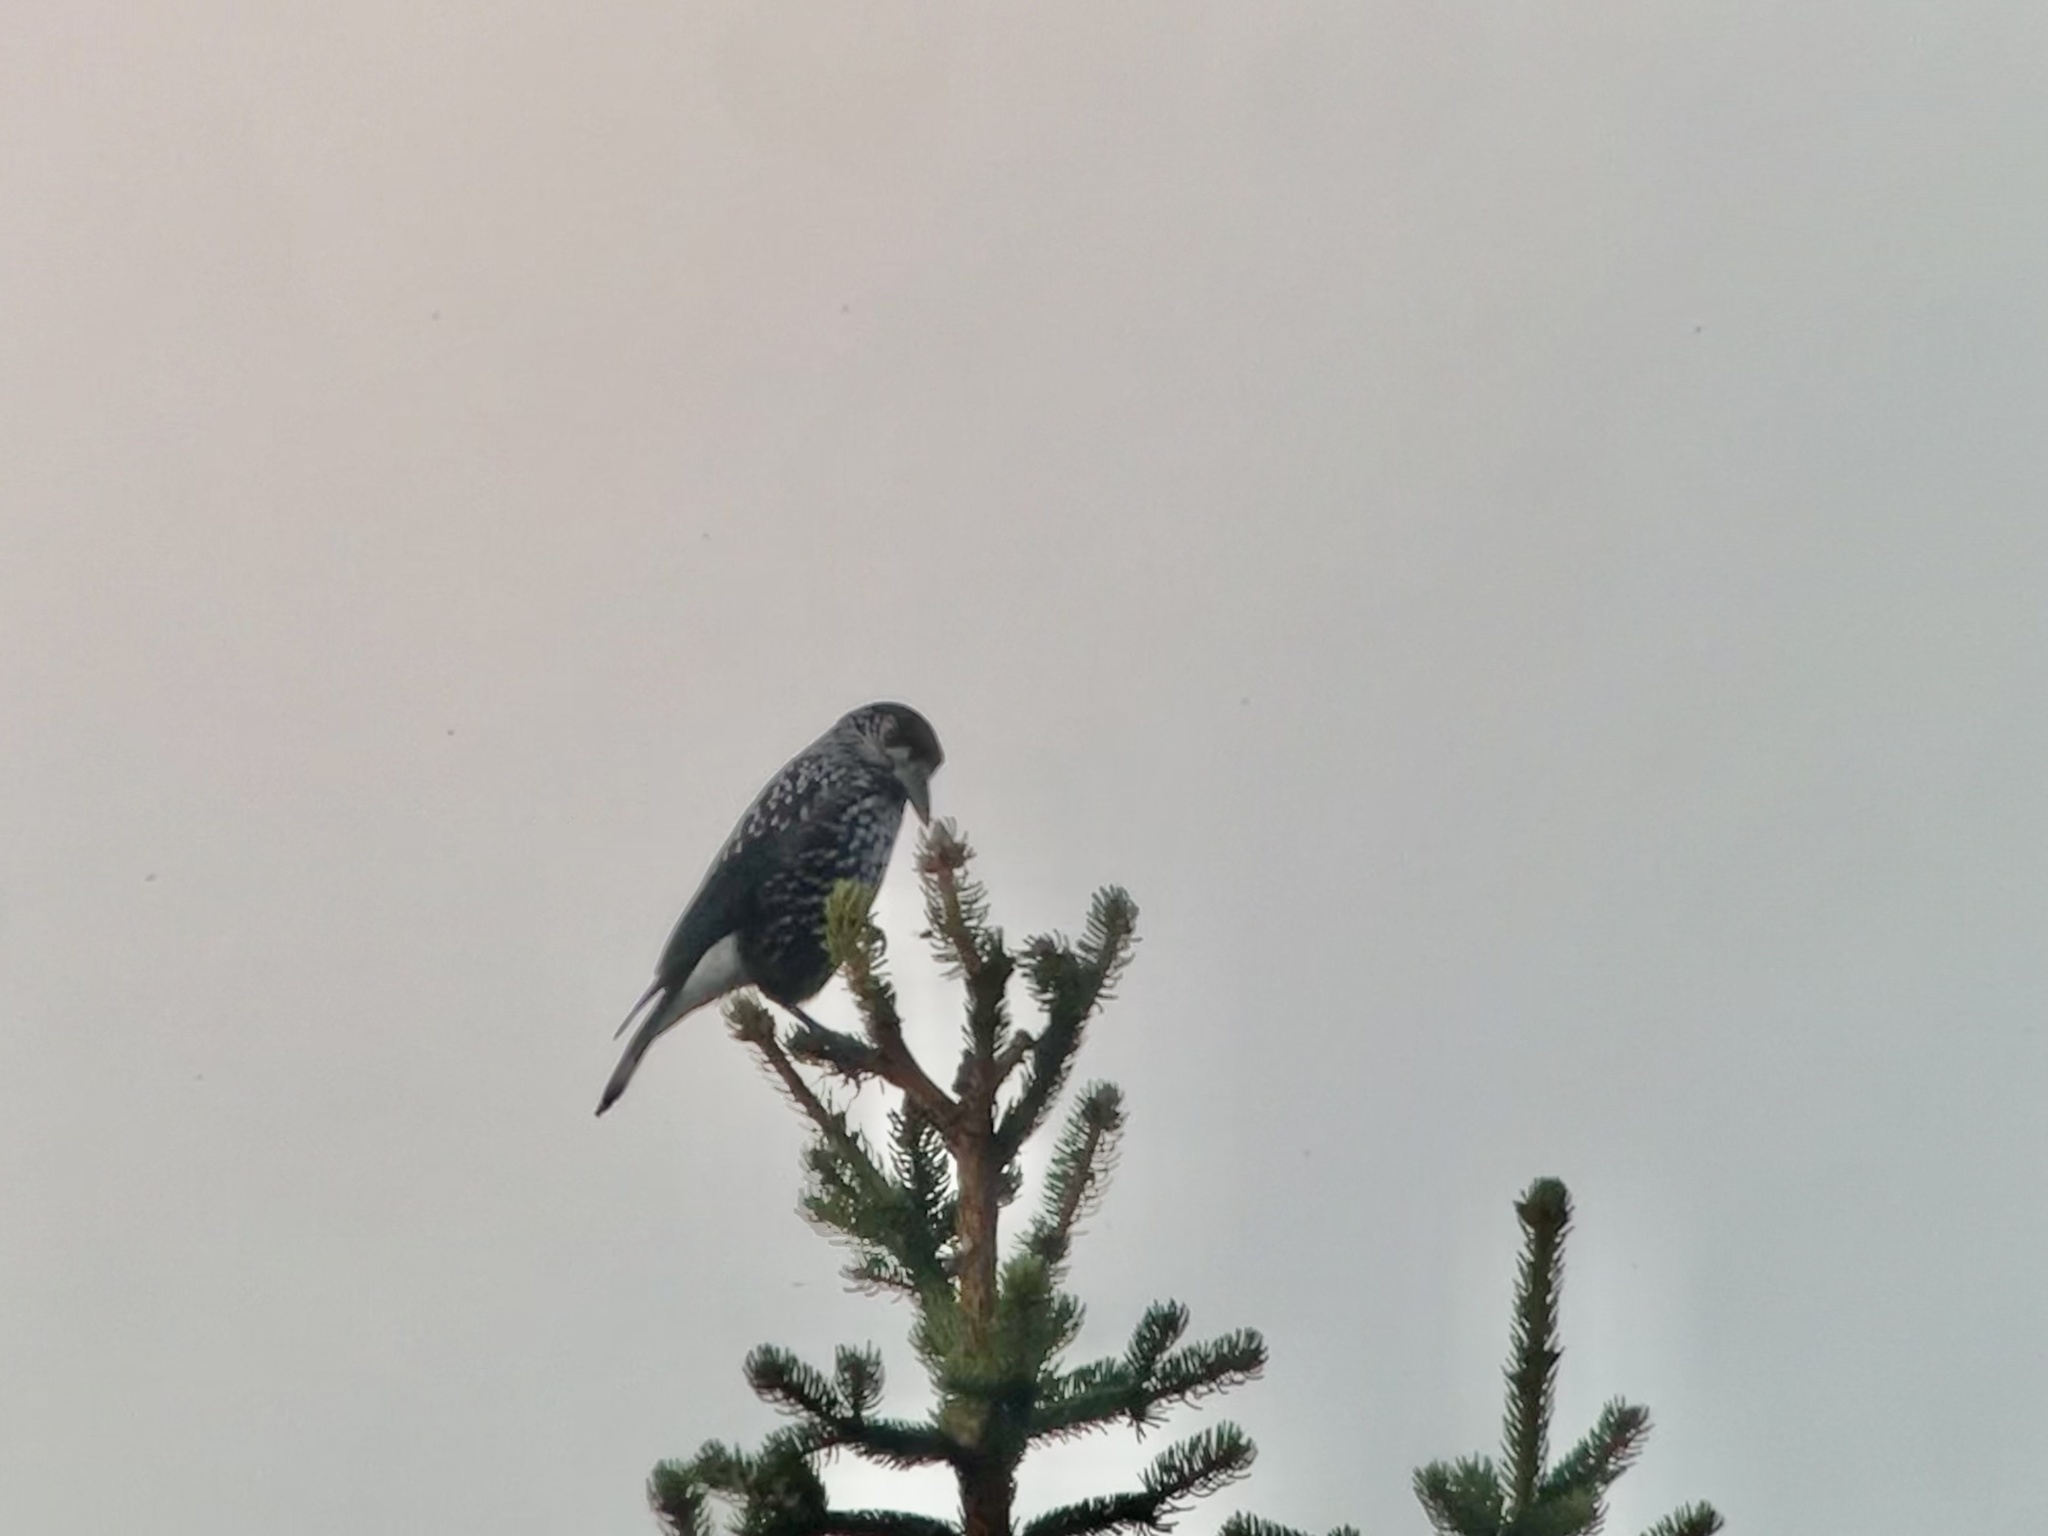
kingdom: Animalia
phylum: Chordata
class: Aves
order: Passeriformes
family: Corvidae
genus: Nucifraga
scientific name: Nucifraga caryocatactes
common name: Spotted nutcracker
